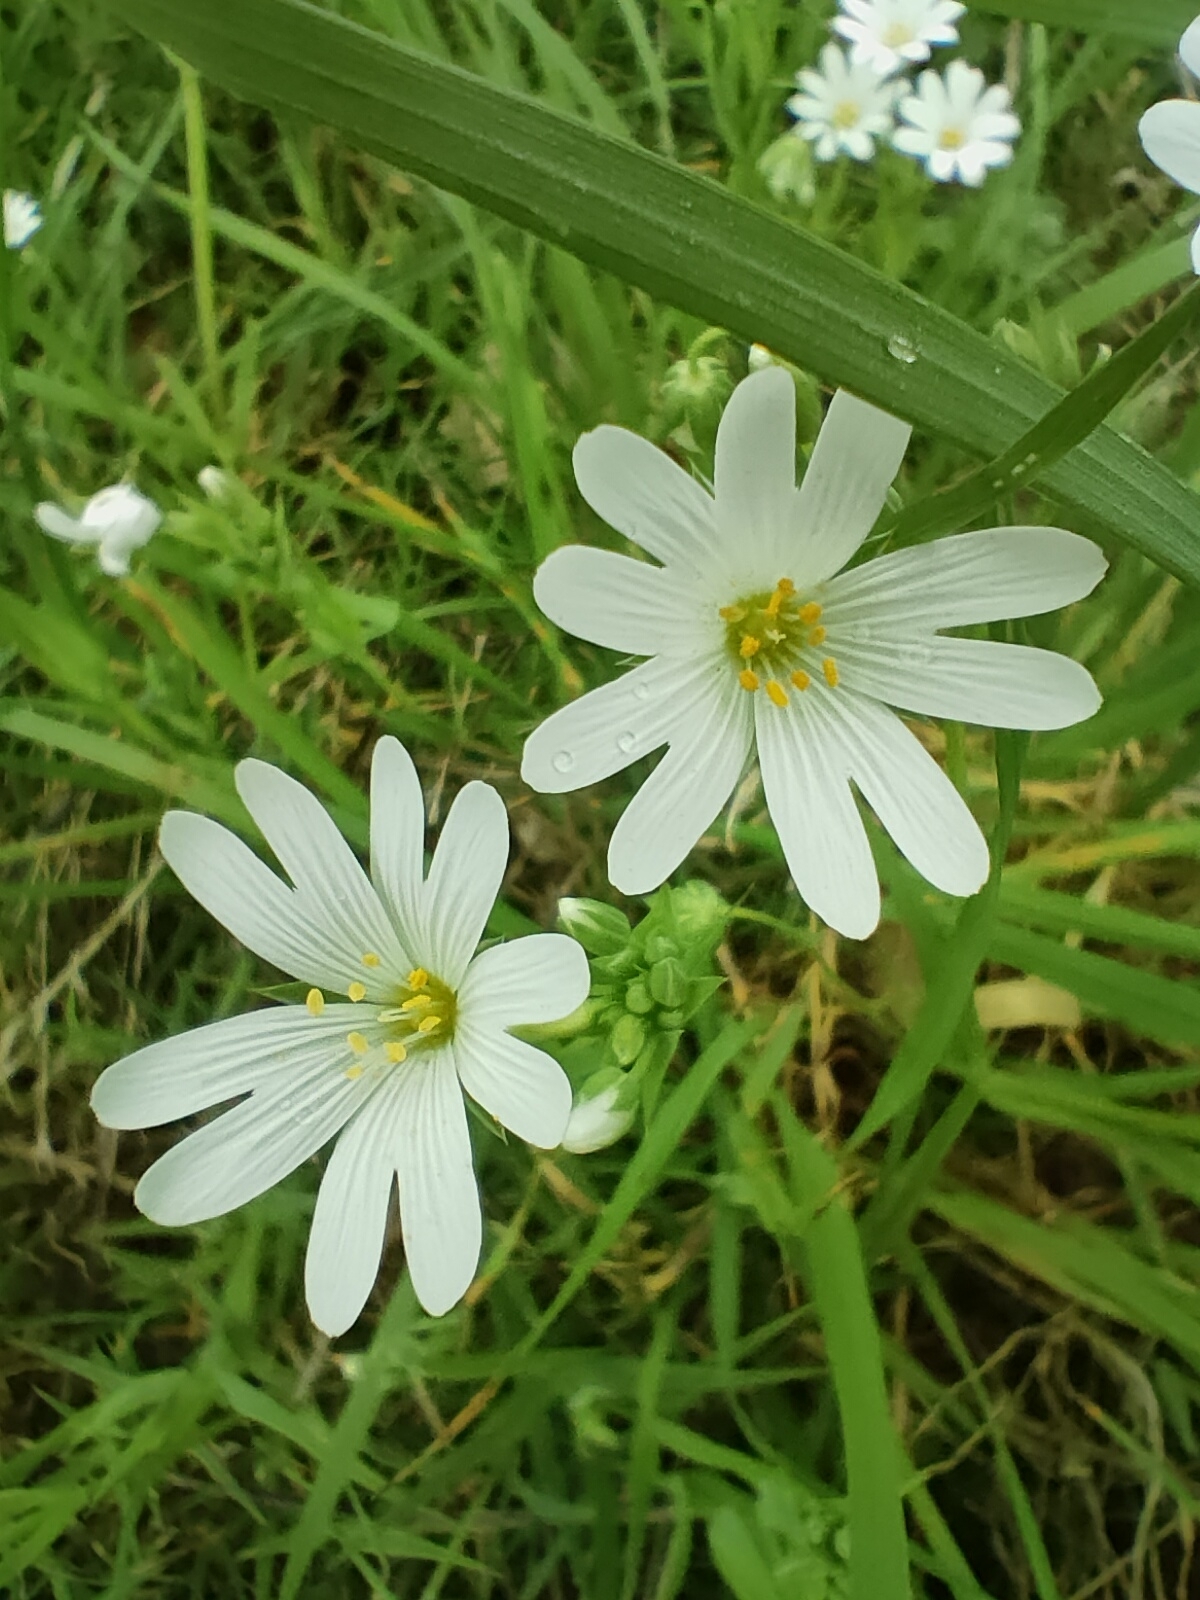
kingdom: Plantae
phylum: Tracheophyta
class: Magnoliopsida
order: Caryophyllales
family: Caryophyllaceae
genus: Rabelera
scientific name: Rabelera holostea
